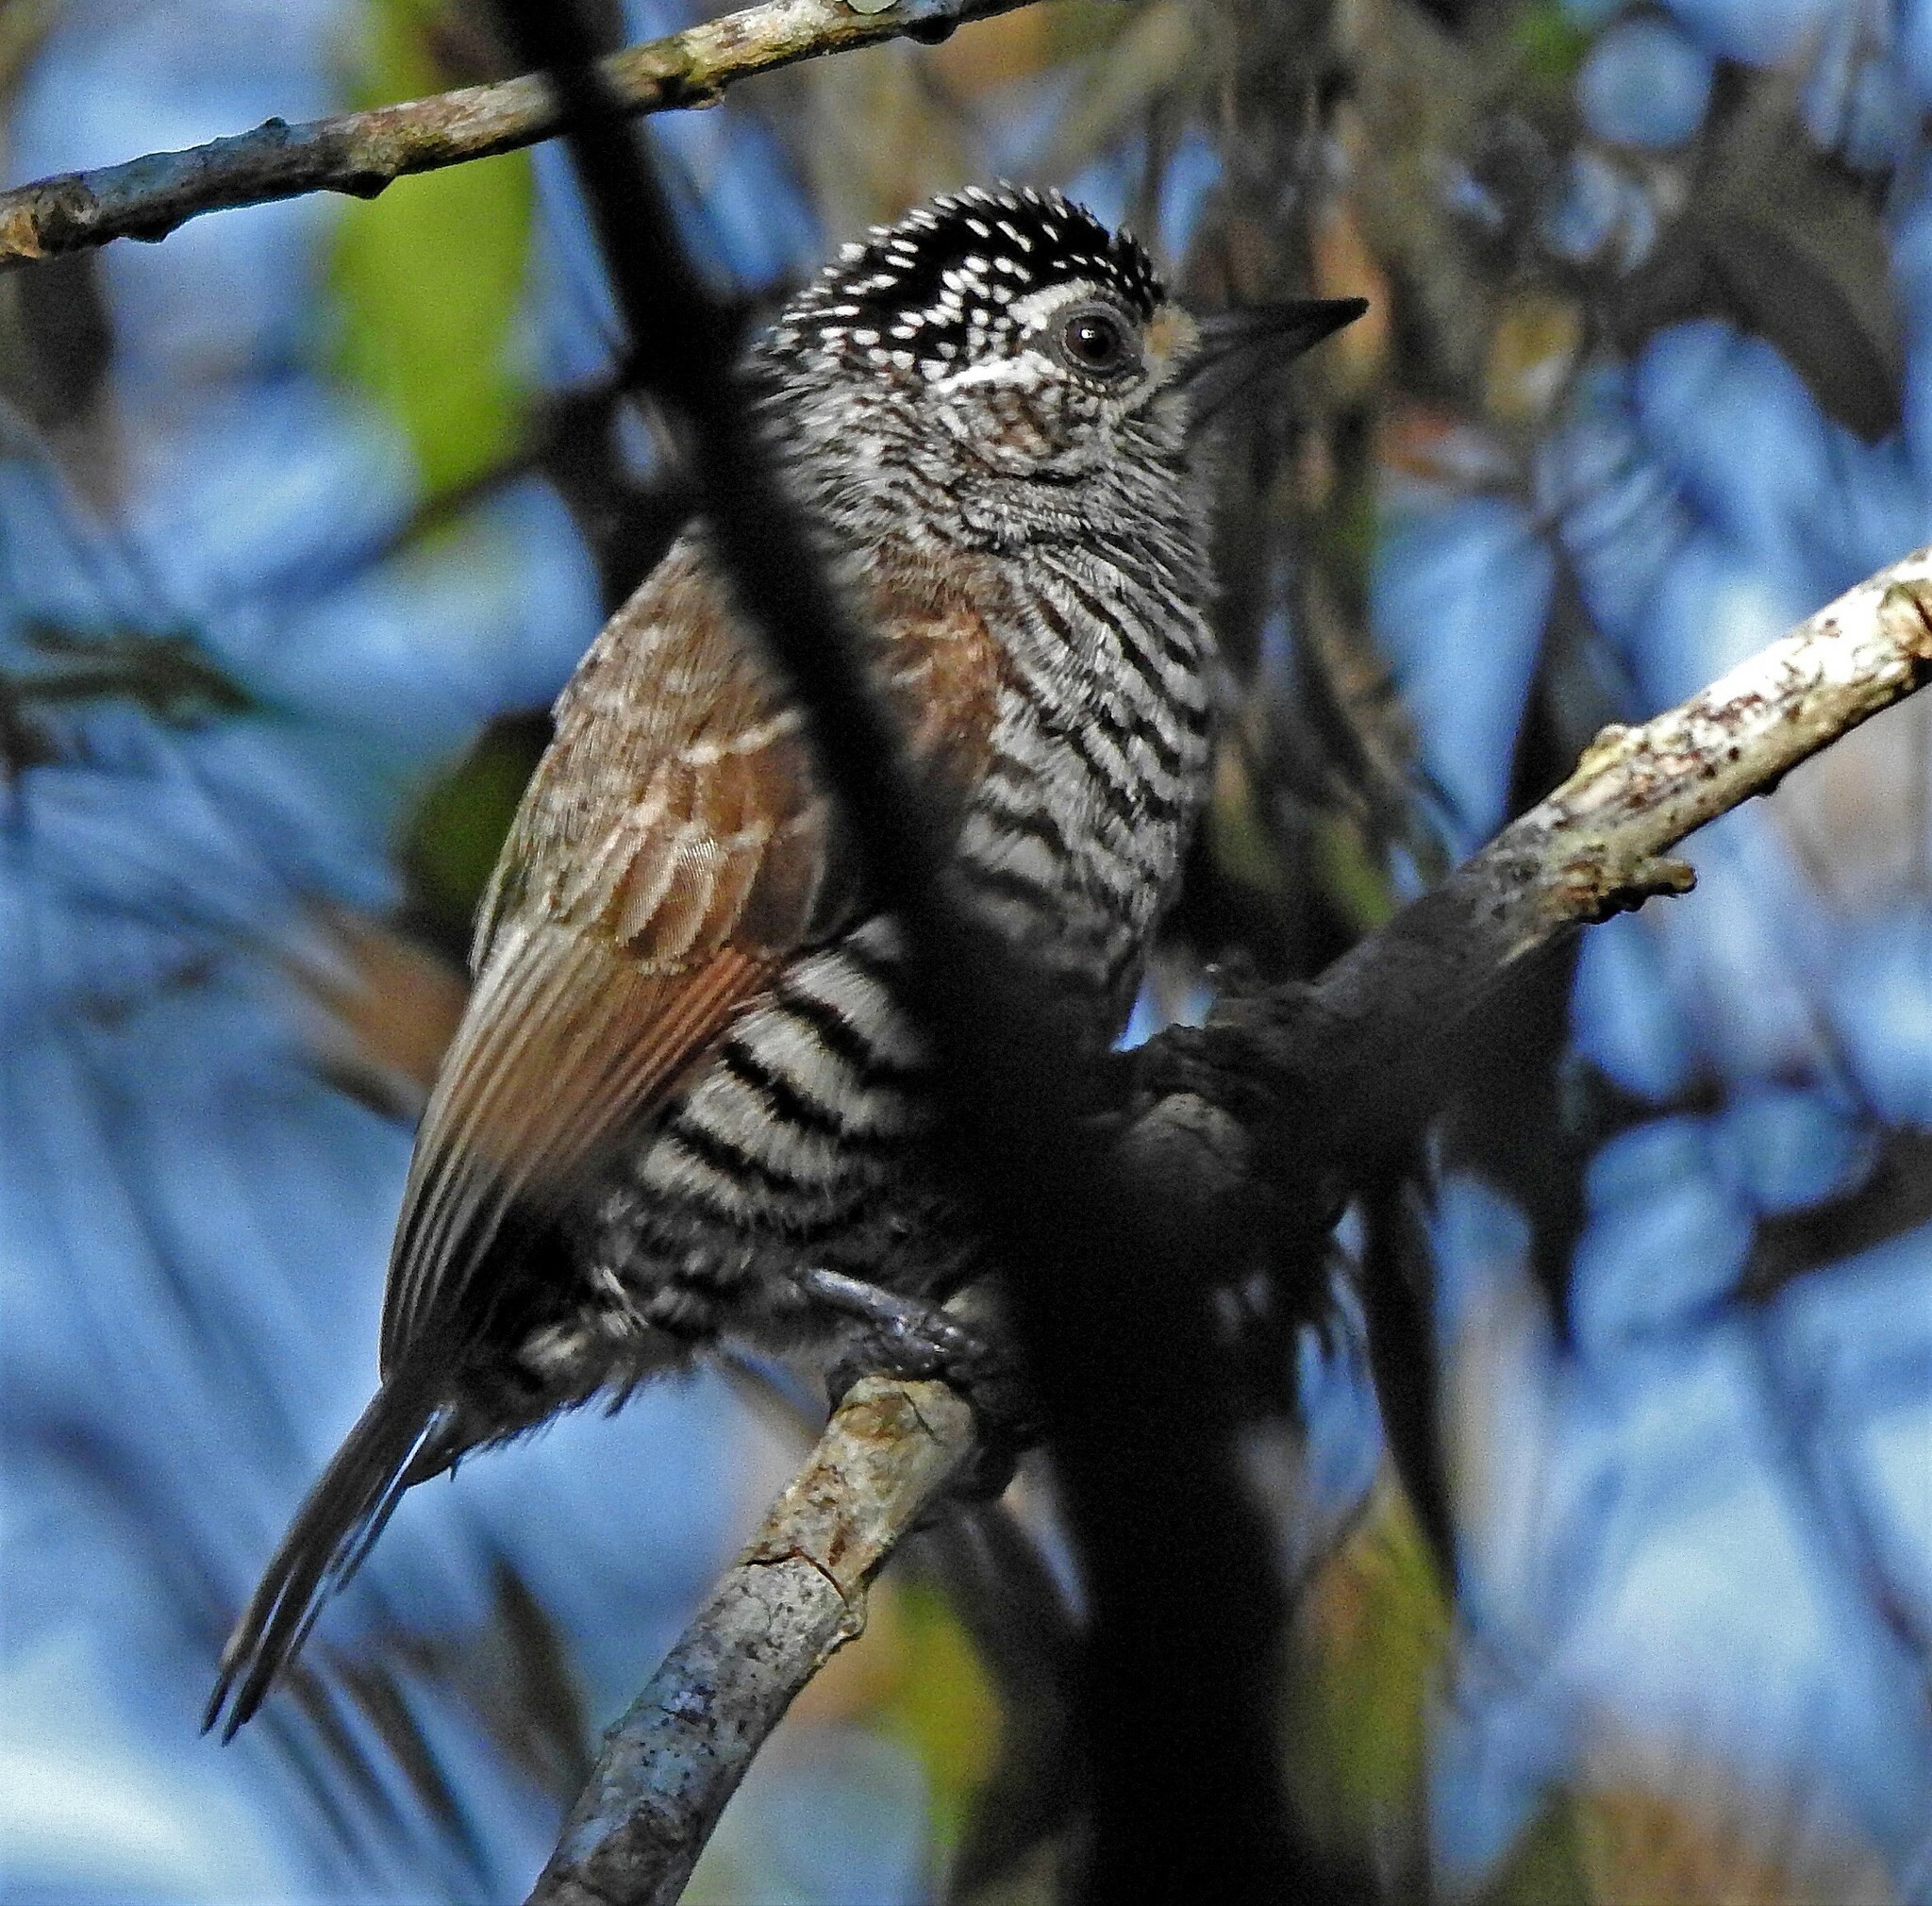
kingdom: Animalia
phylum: Chordata
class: Aves
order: Piciformes
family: Picidae
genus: Picumnus
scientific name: Picumnus cirratus
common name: White-barred piculet
